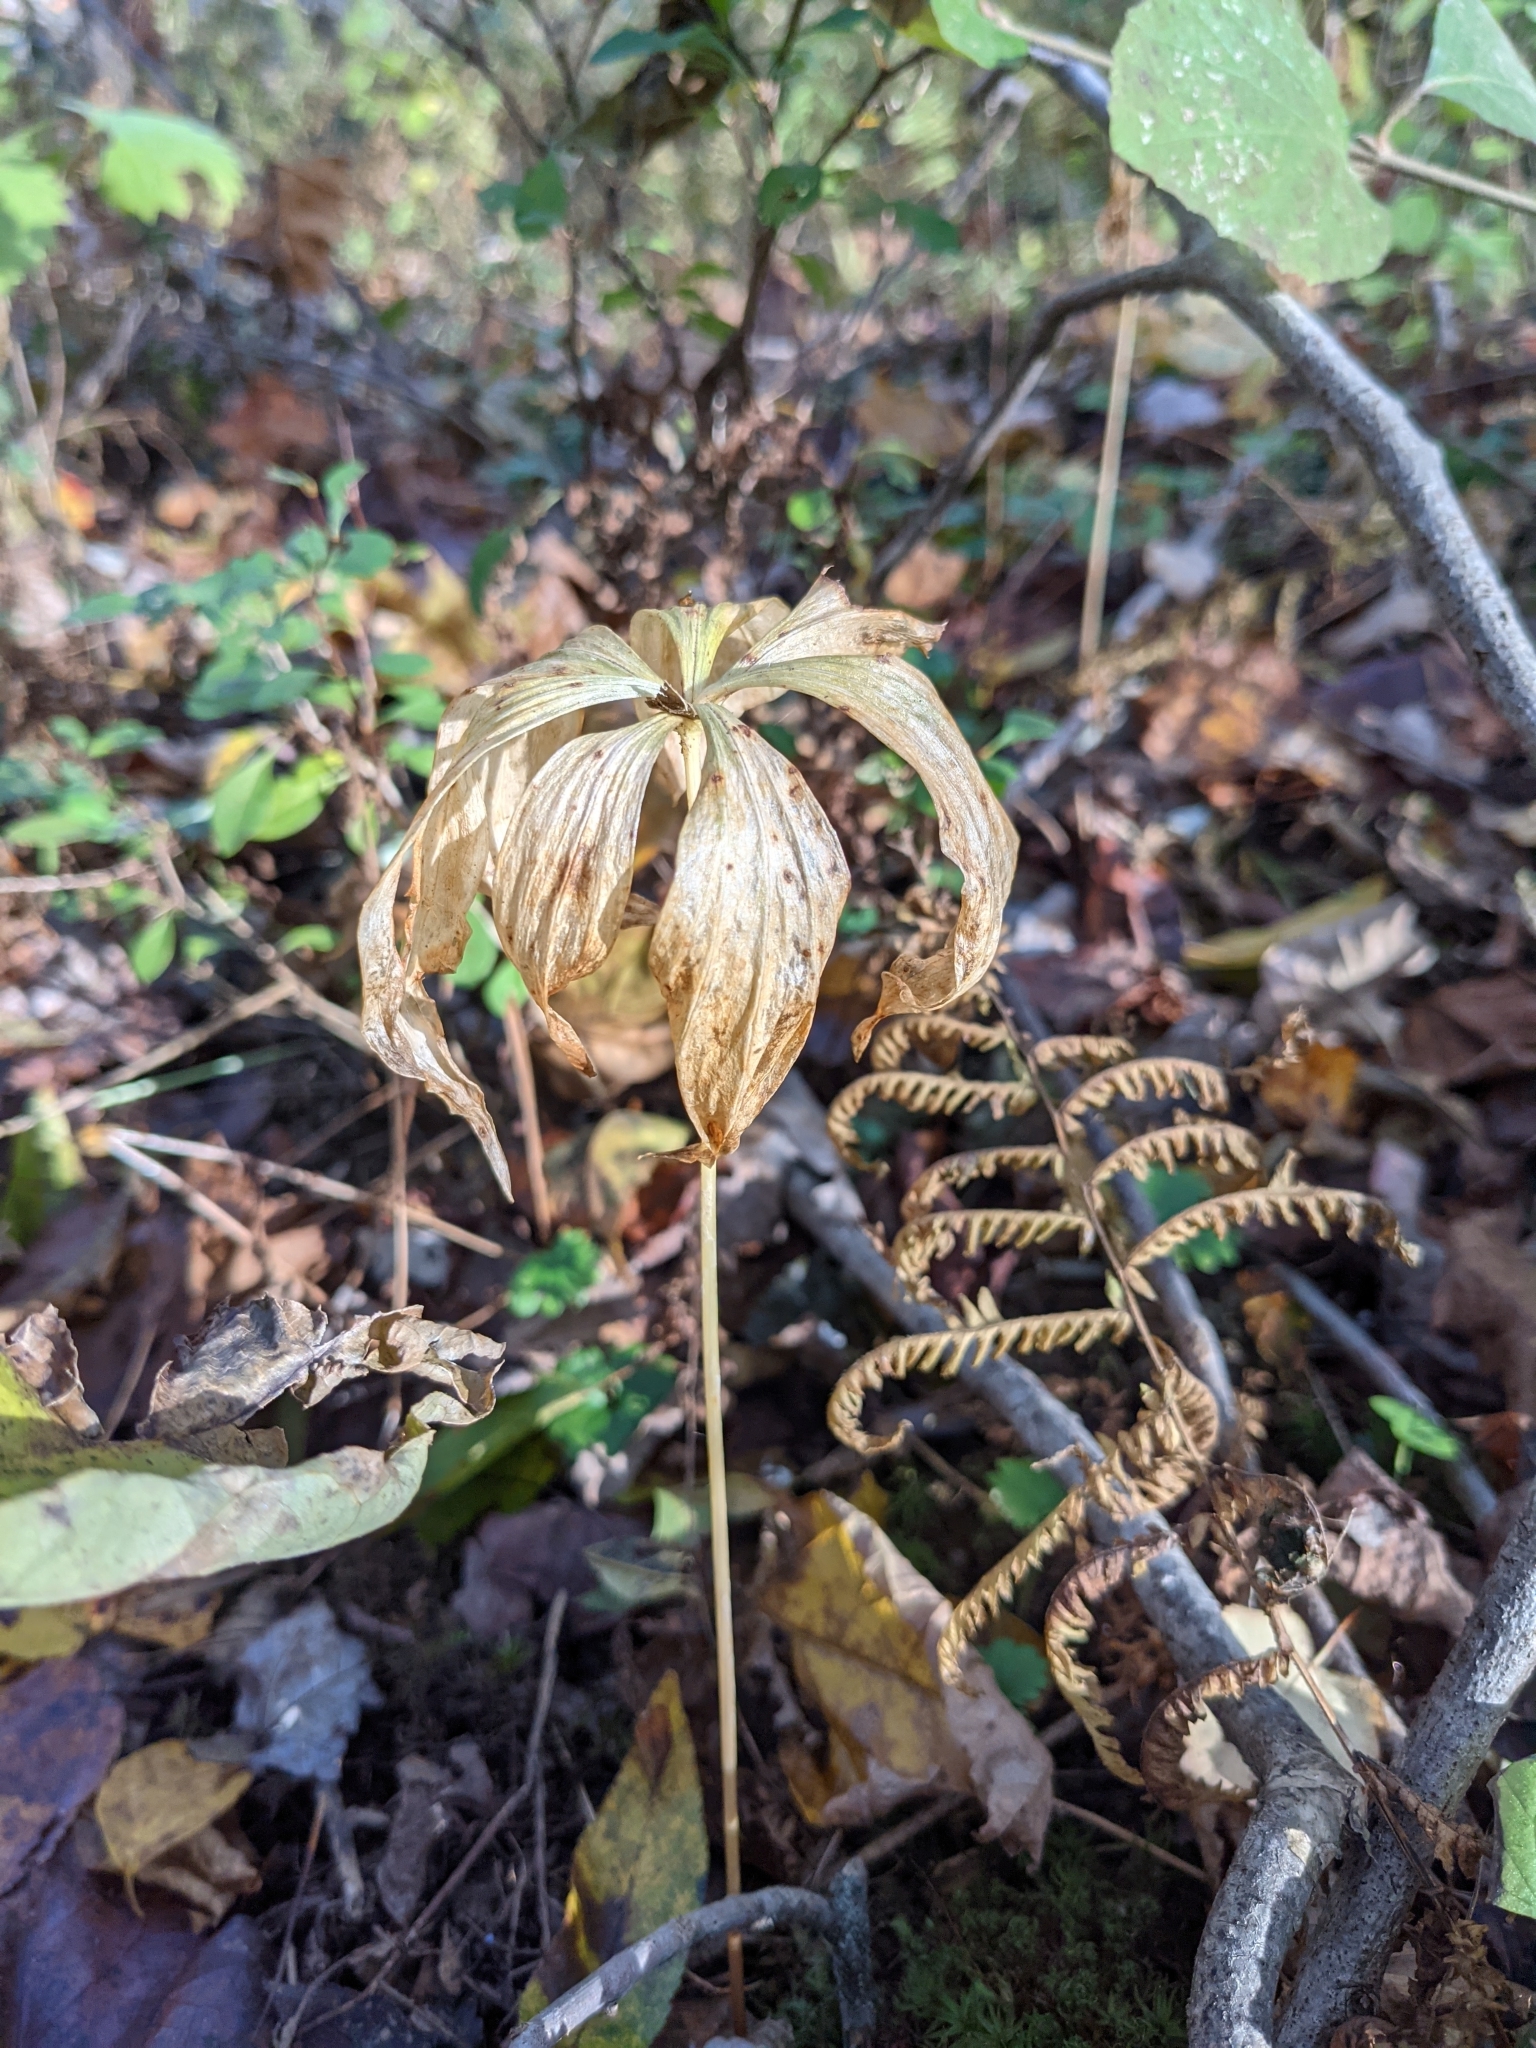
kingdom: Plantae
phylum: Tracheophyta
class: Liliopsida
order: Liliales
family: Liliaceae
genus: Medeola
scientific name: Medeola virginiana
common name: Indian cucumber-root
